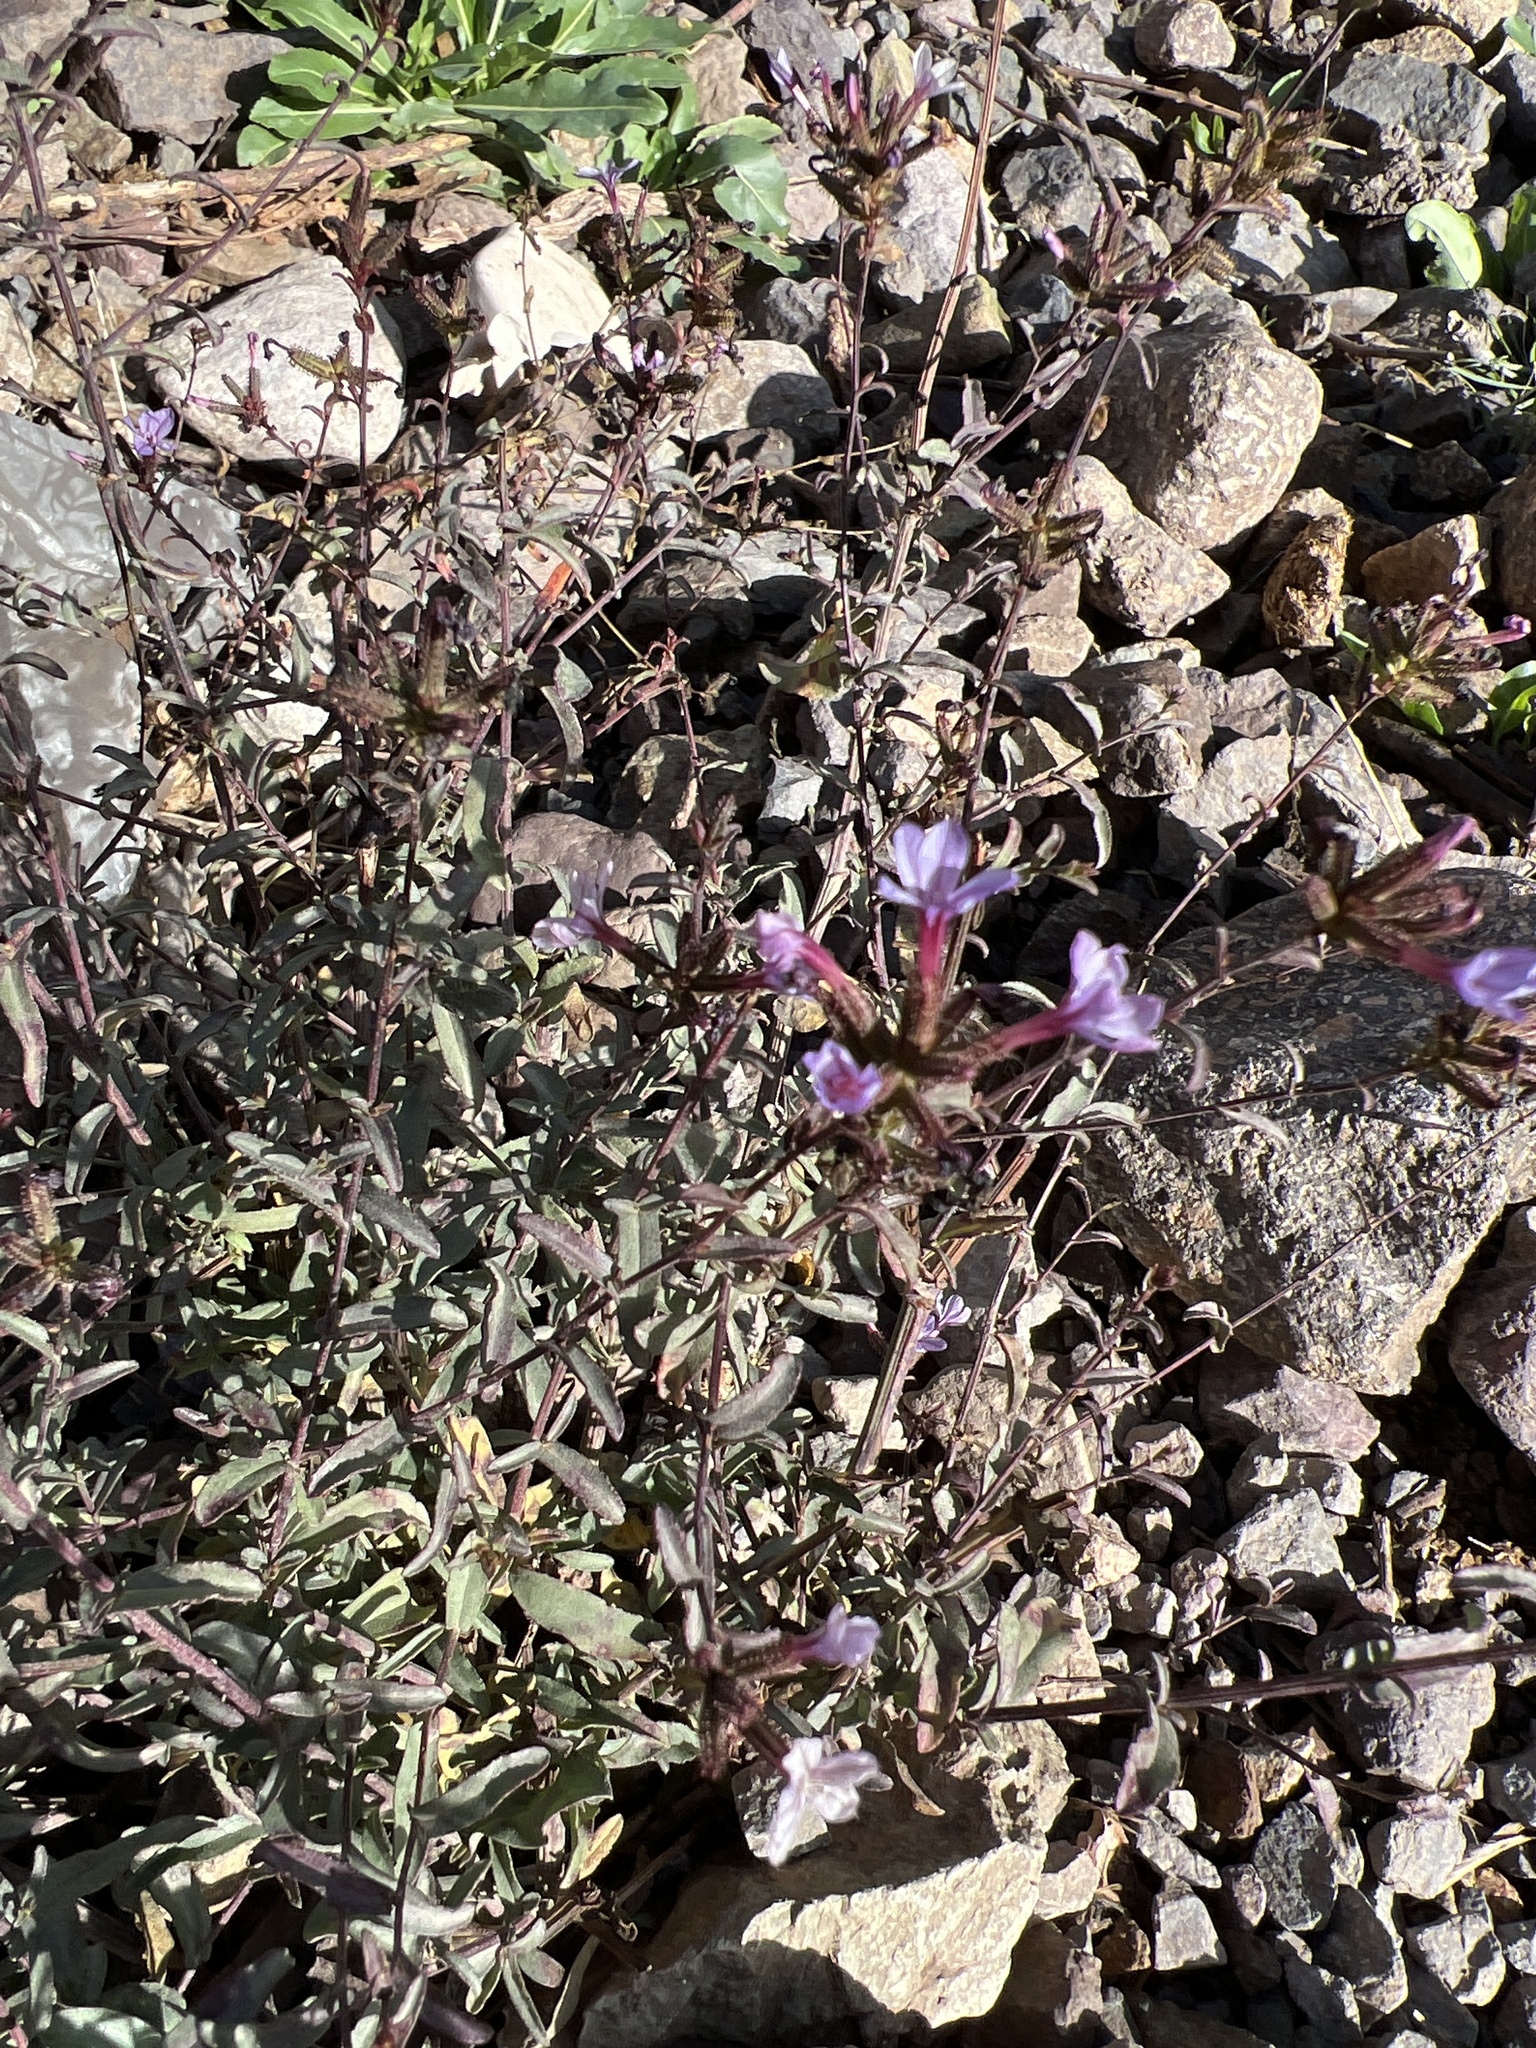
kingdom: Plantae
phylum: Tracheophyta
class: Magnoliopsida
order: Caryophyllales
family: Plumbaginaceae
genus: Plumbago
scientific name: Plumbago europaea
